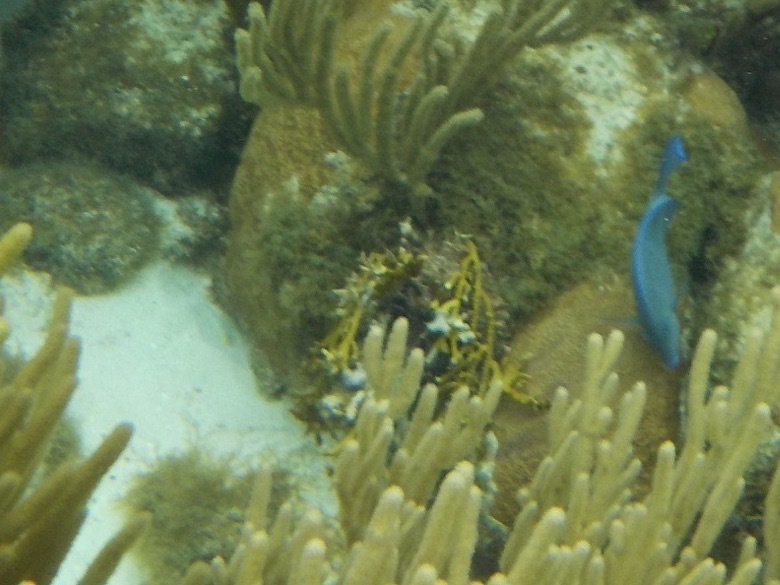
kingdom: Animalia
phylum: Cnidaria
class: Hydrozoa
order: Anthoathecata
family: Milleporidae
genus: Millepora
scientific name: Millepora alcicornis
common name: Branching fire coral
